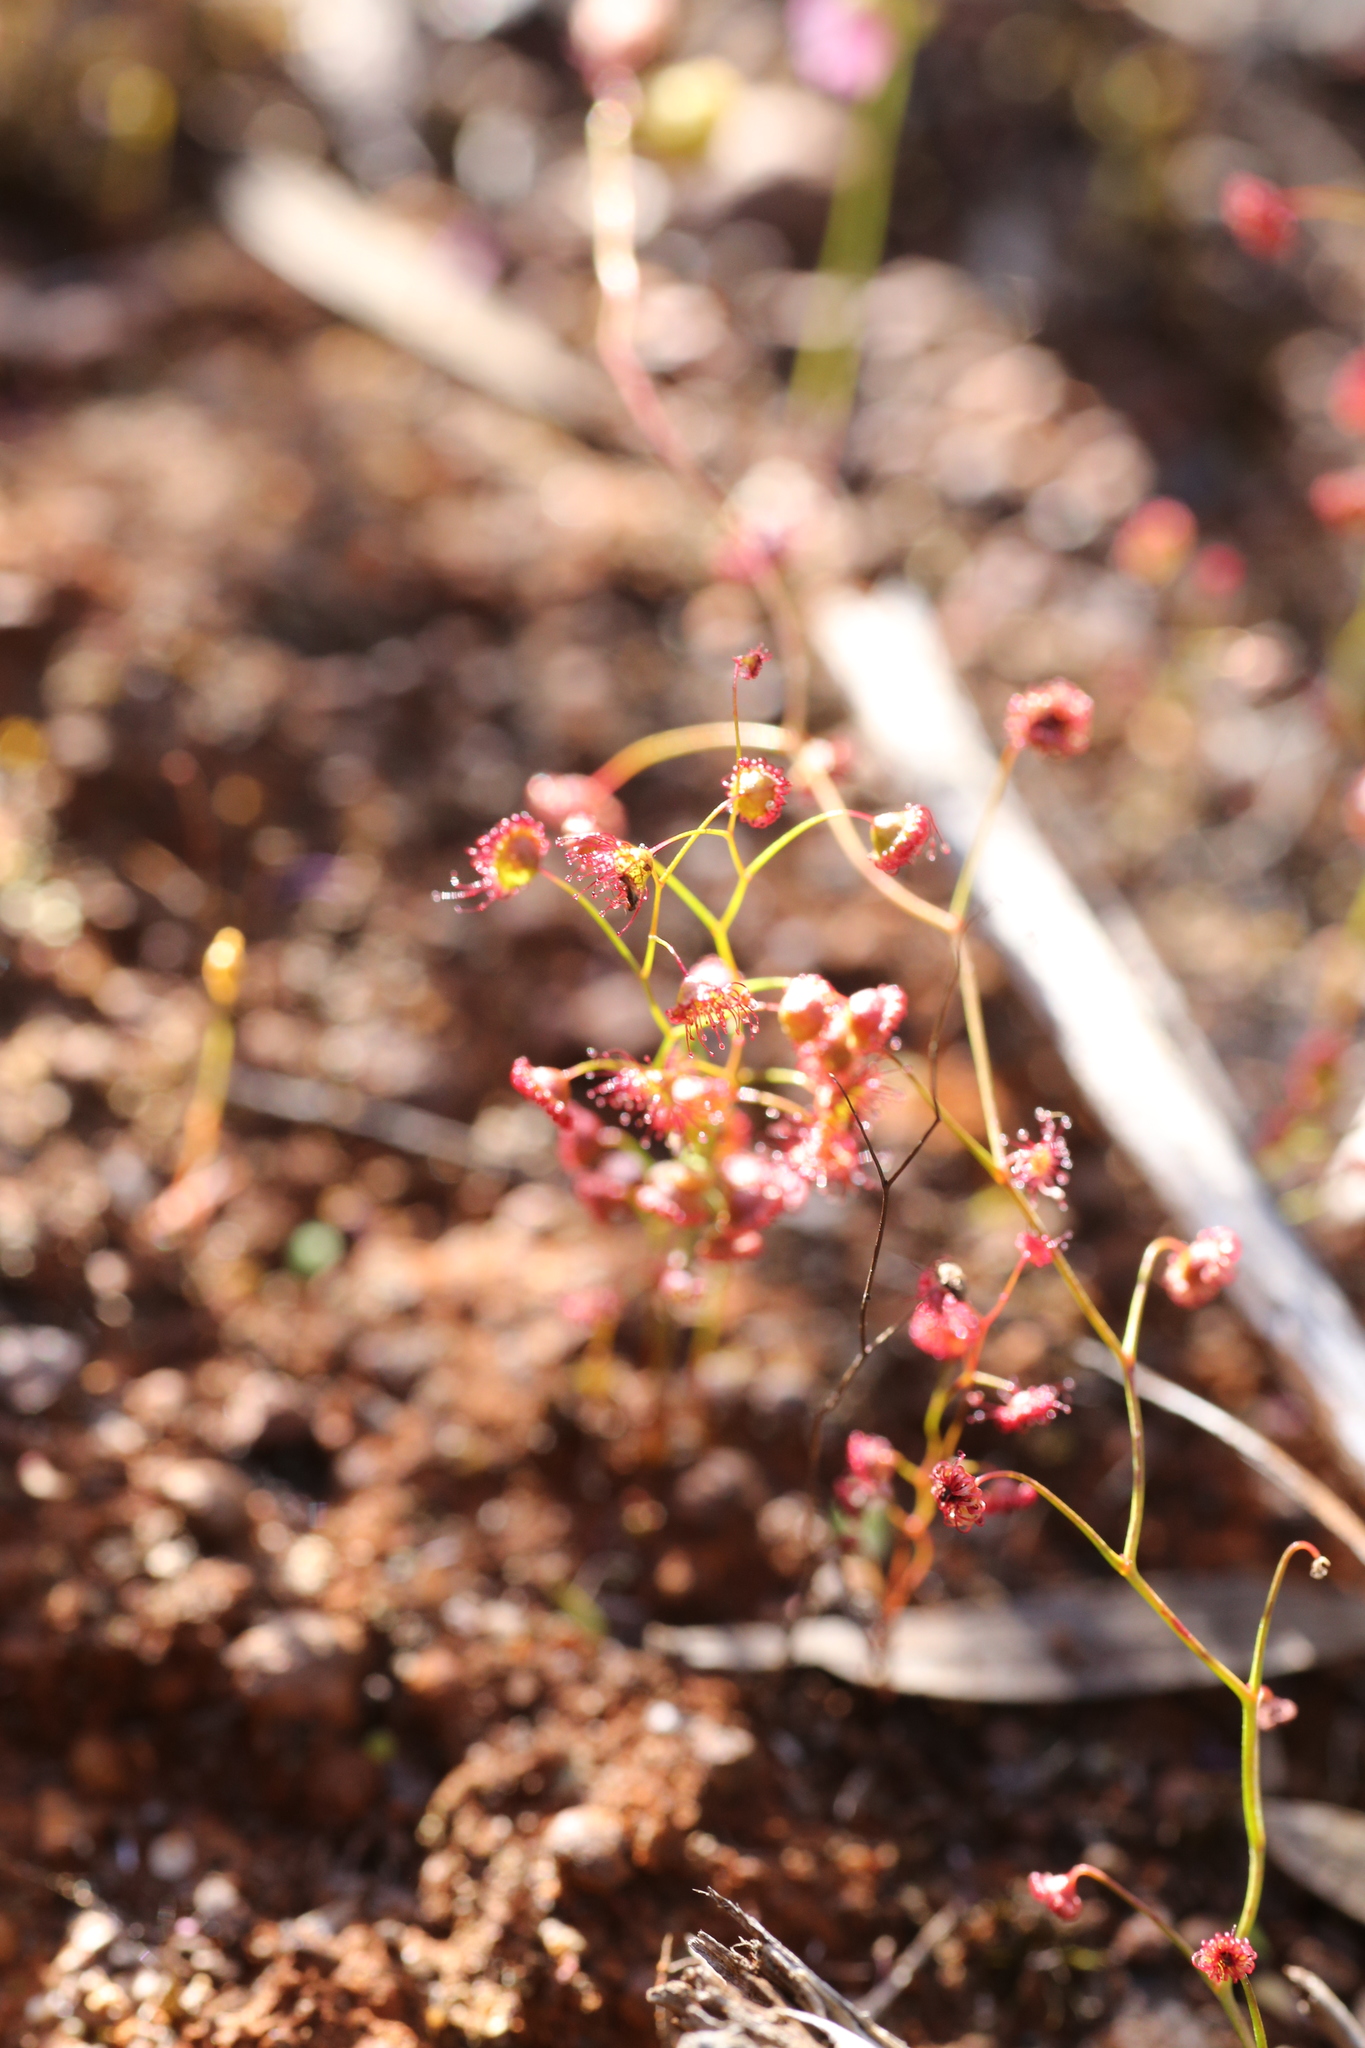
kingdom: Plantae
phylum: Tracheophyta
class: Magnoliopsida
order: Caryophyllales
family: Droseraceae
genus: Drosera
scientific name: Drosera menziesii
